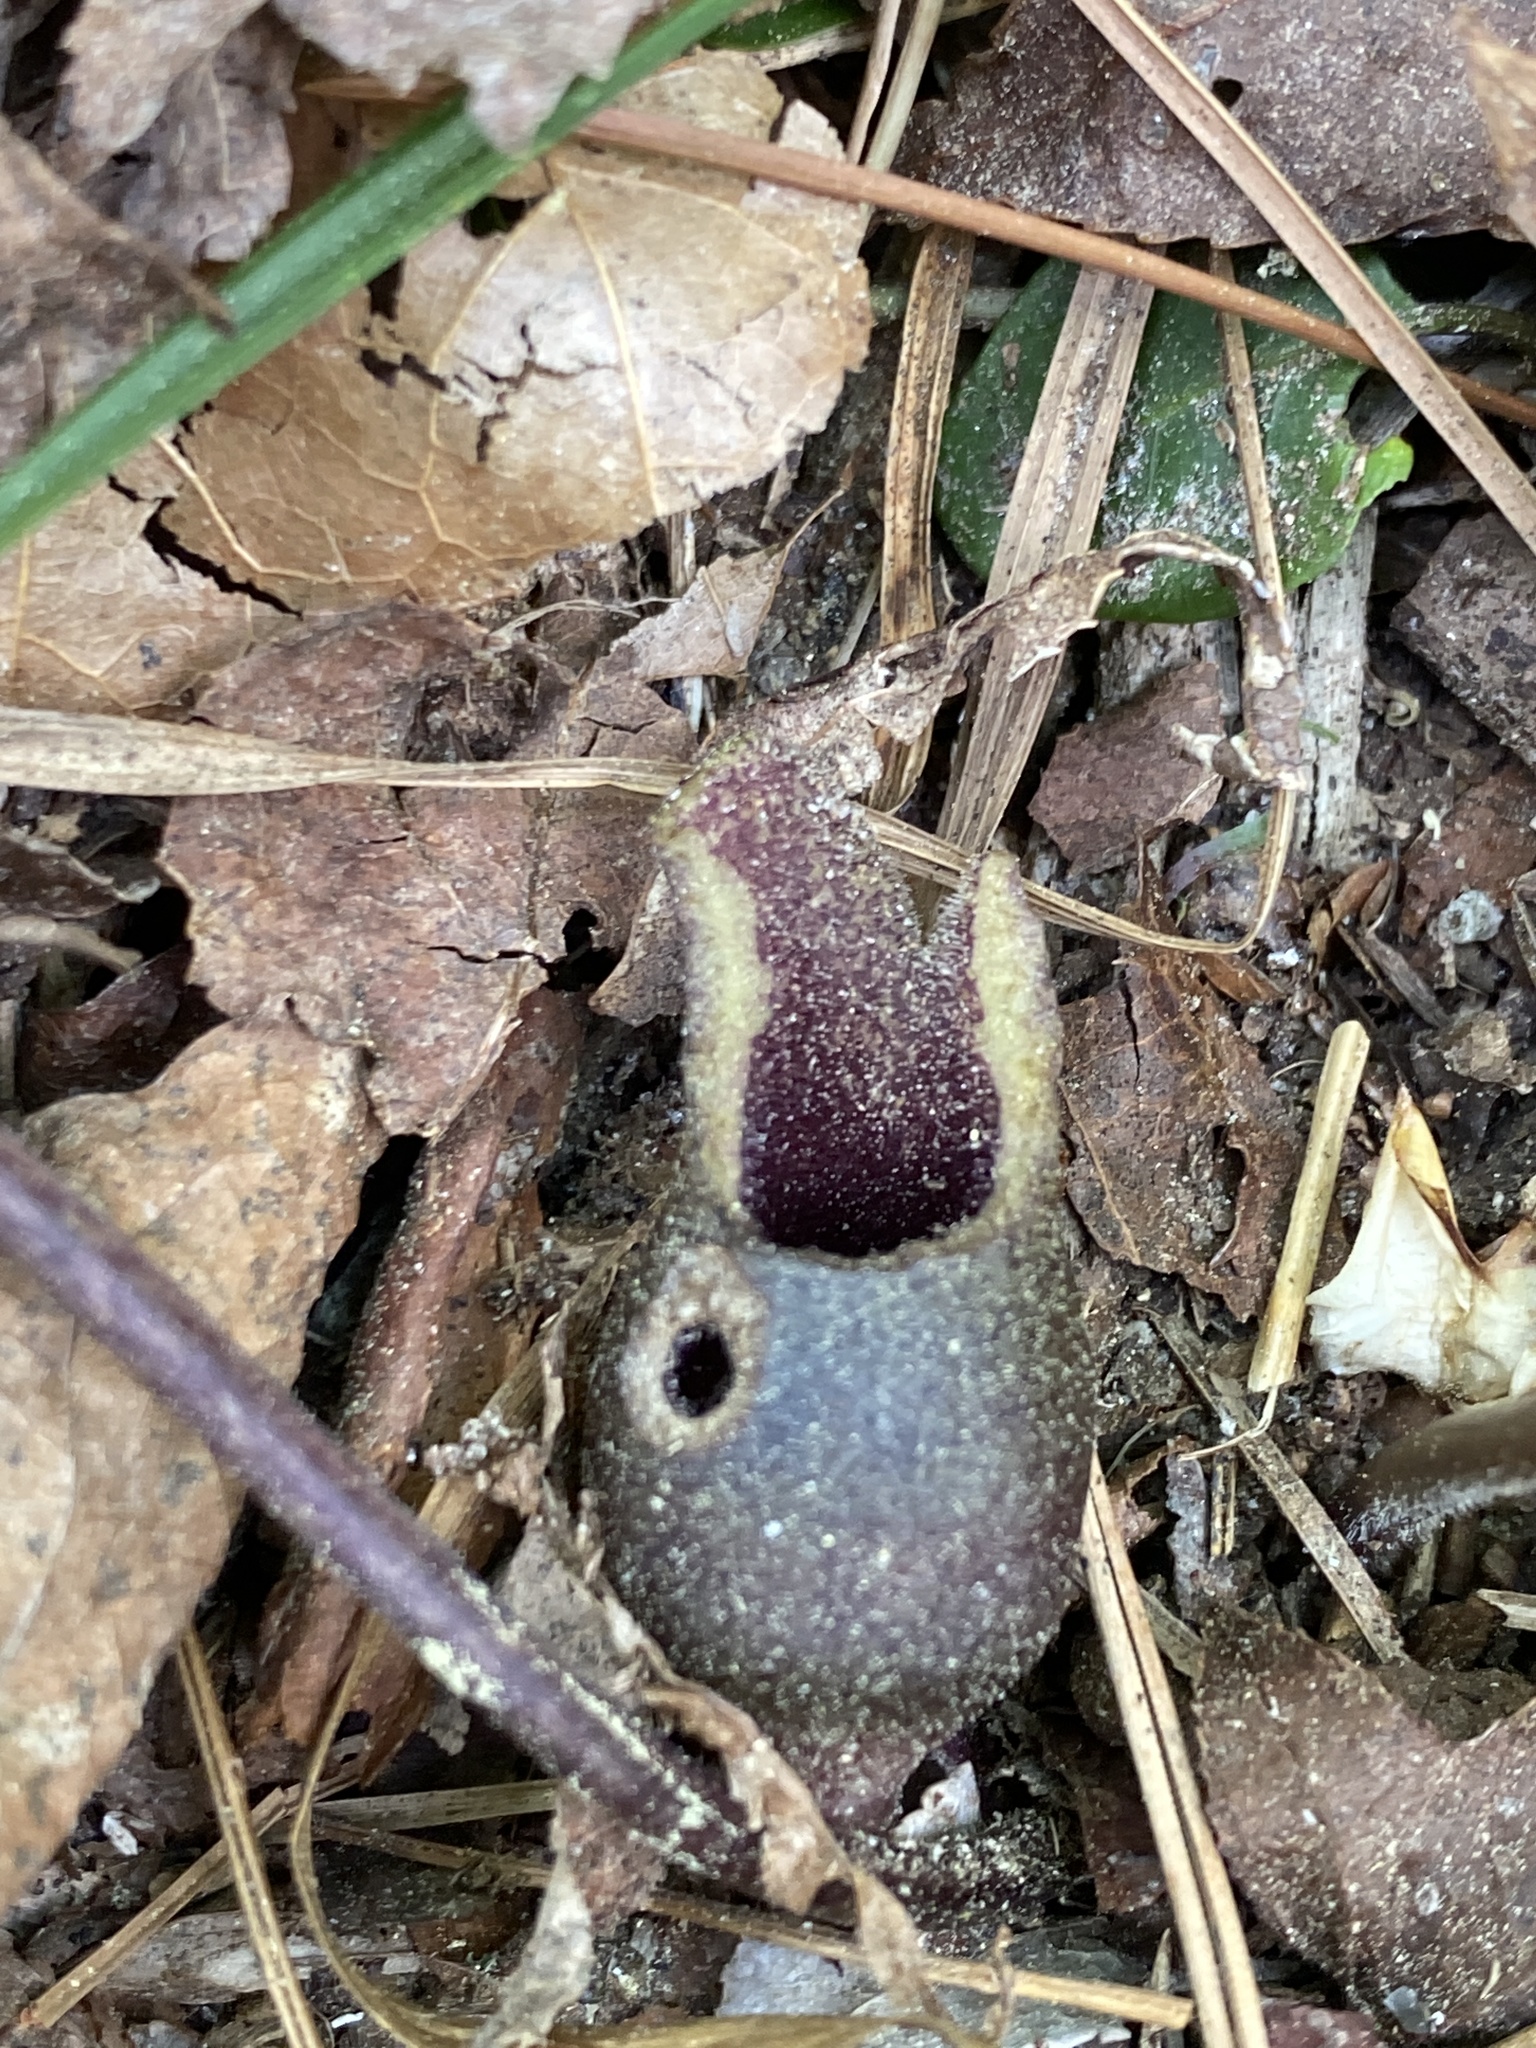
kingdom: Plantae
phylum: Tracheophyta
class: Magnoliopsida
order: Piperales
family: Aristolochiaceae
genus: Hexastylis
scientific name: Hexastylis arifolia
